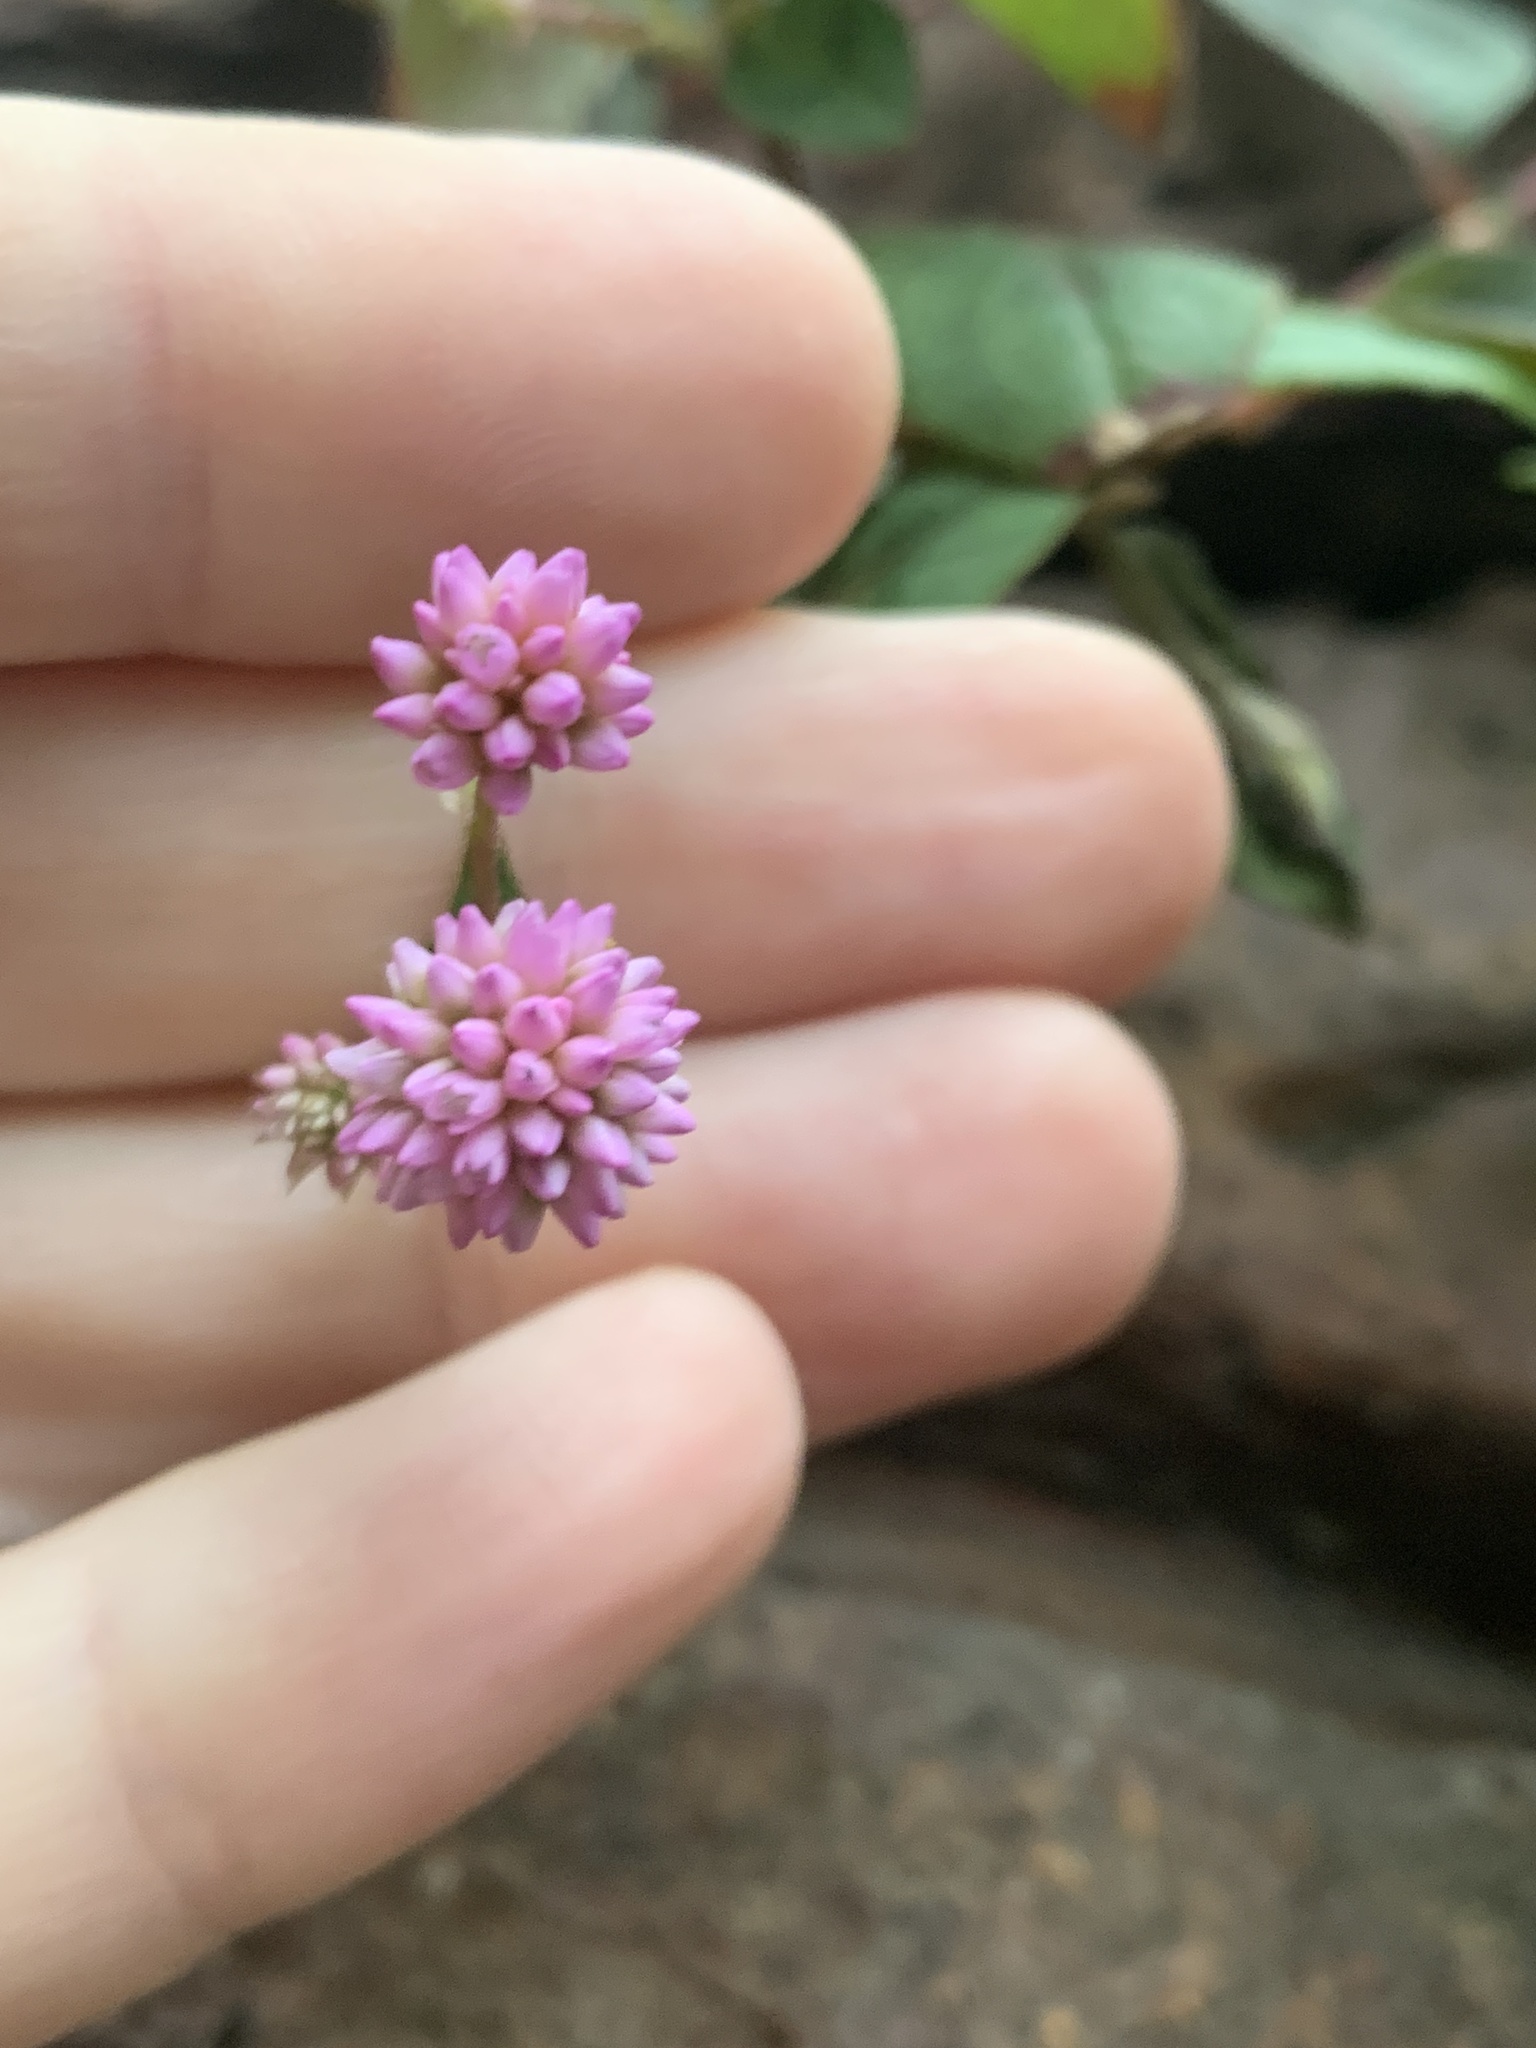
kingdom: Plantae
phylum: Tracheophyta
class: Magnoliopsida
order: Caryophyllales
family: Polygonaceae
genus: Persicaria
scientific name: Persicaria capitata
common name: Pinkhead smartweed
